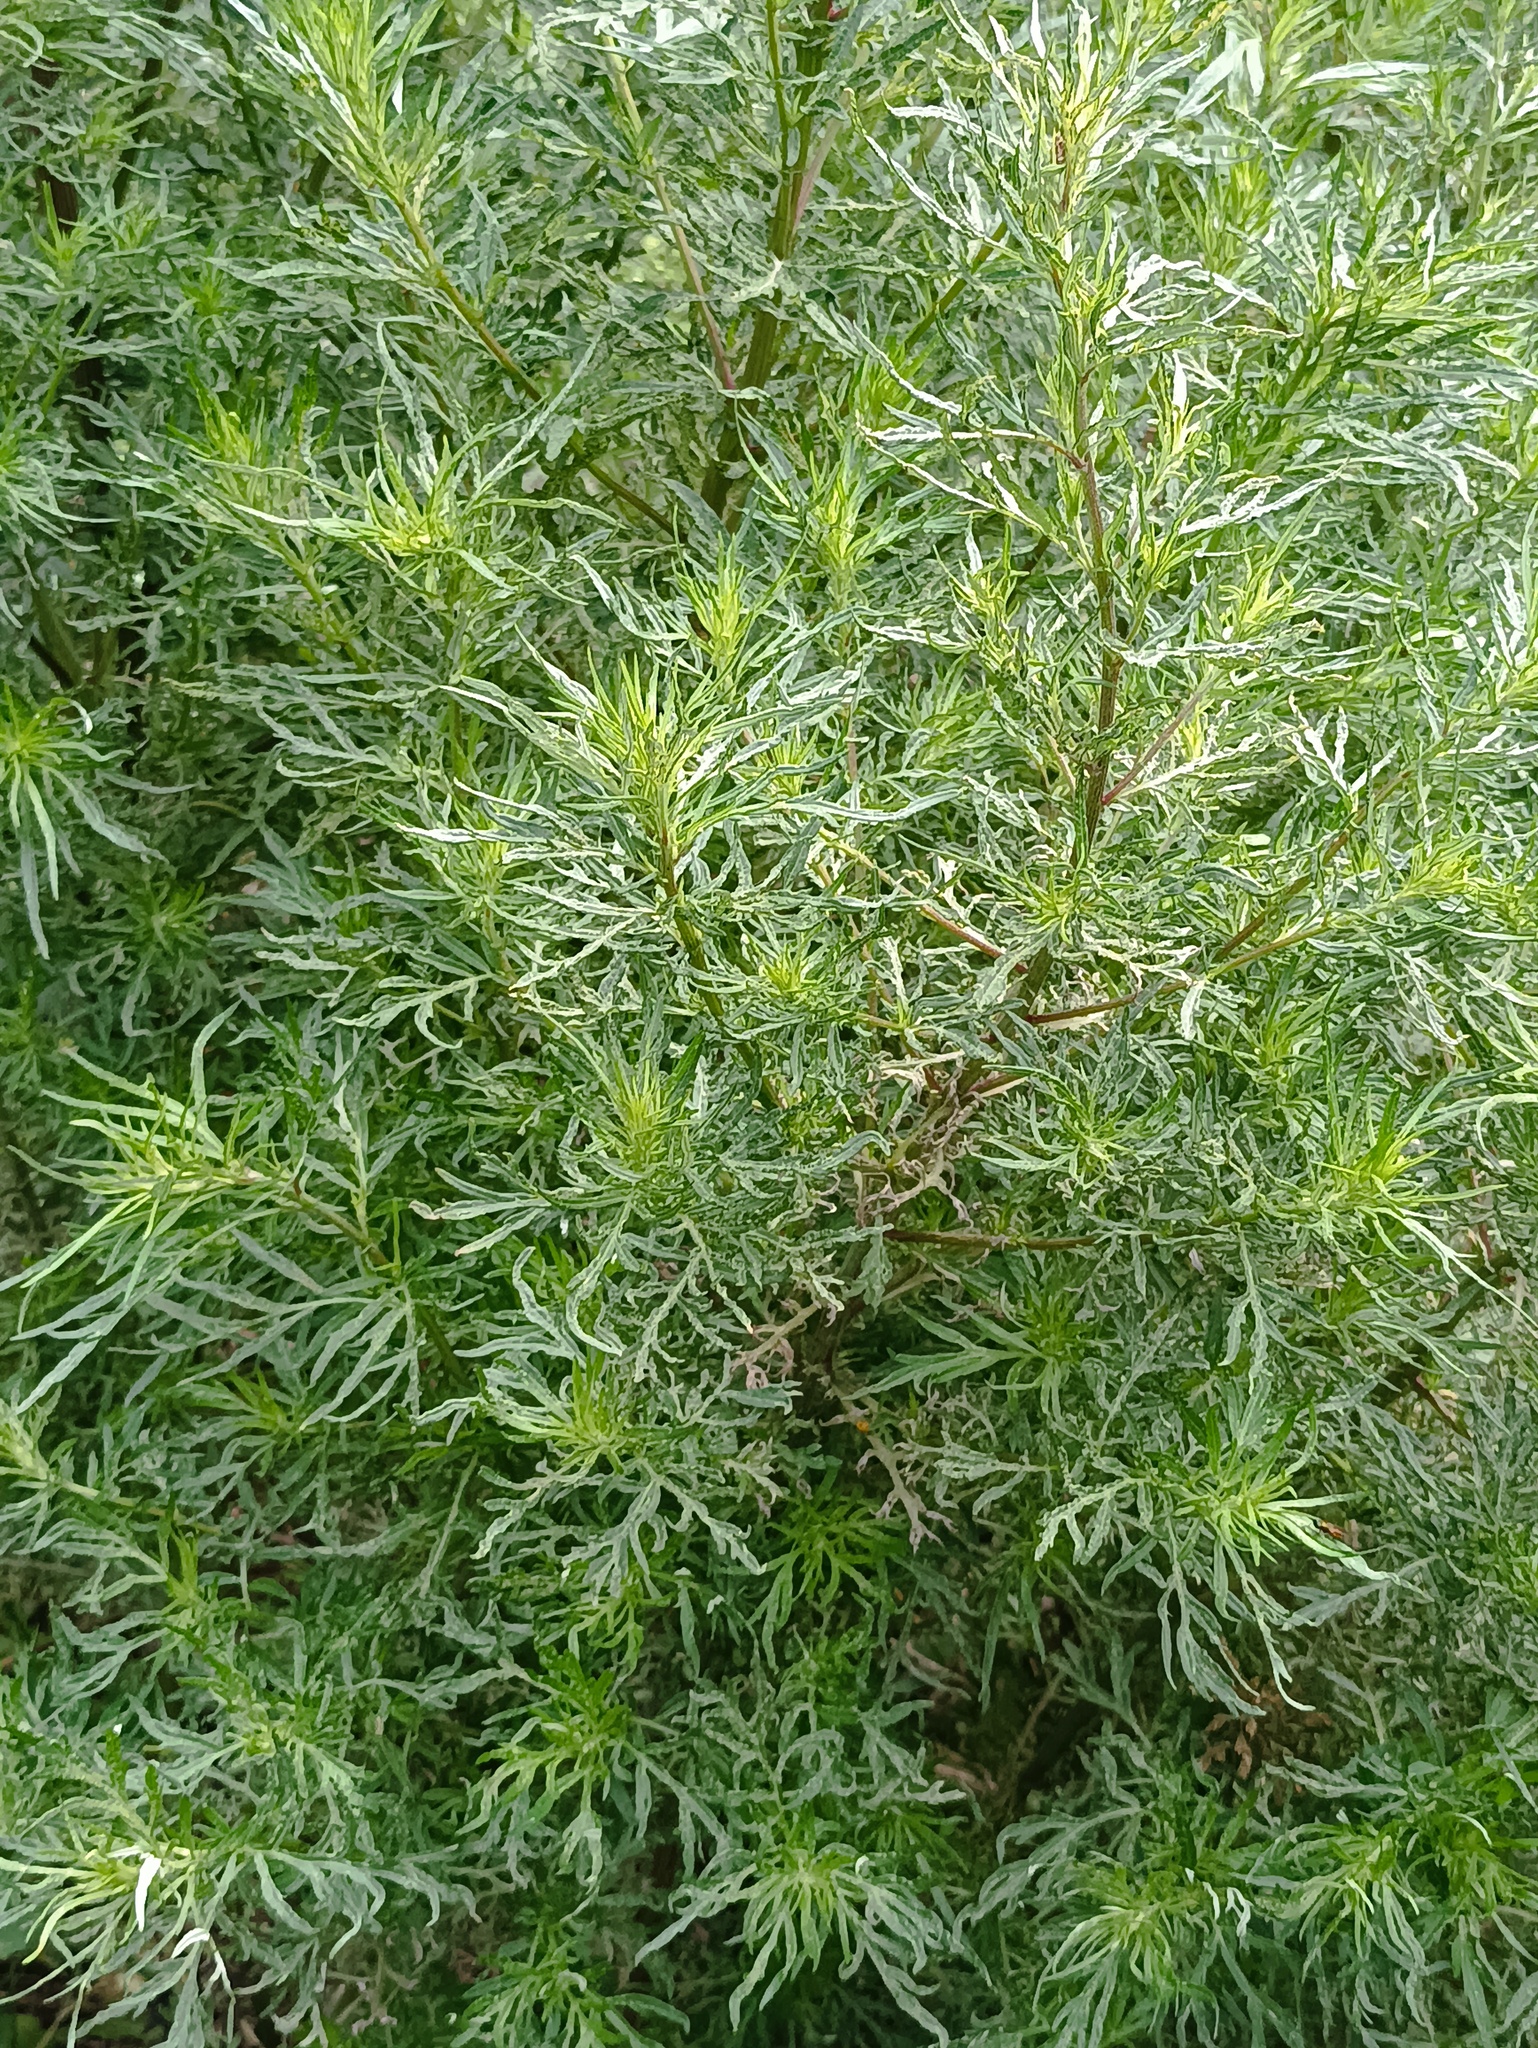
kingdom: Plantae
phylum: Tracheophyta
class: Magnoliopsida
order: Asterales
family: Asteraceae
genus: Artemisia
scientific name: Artemisia vulgaris
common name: Mugwort
